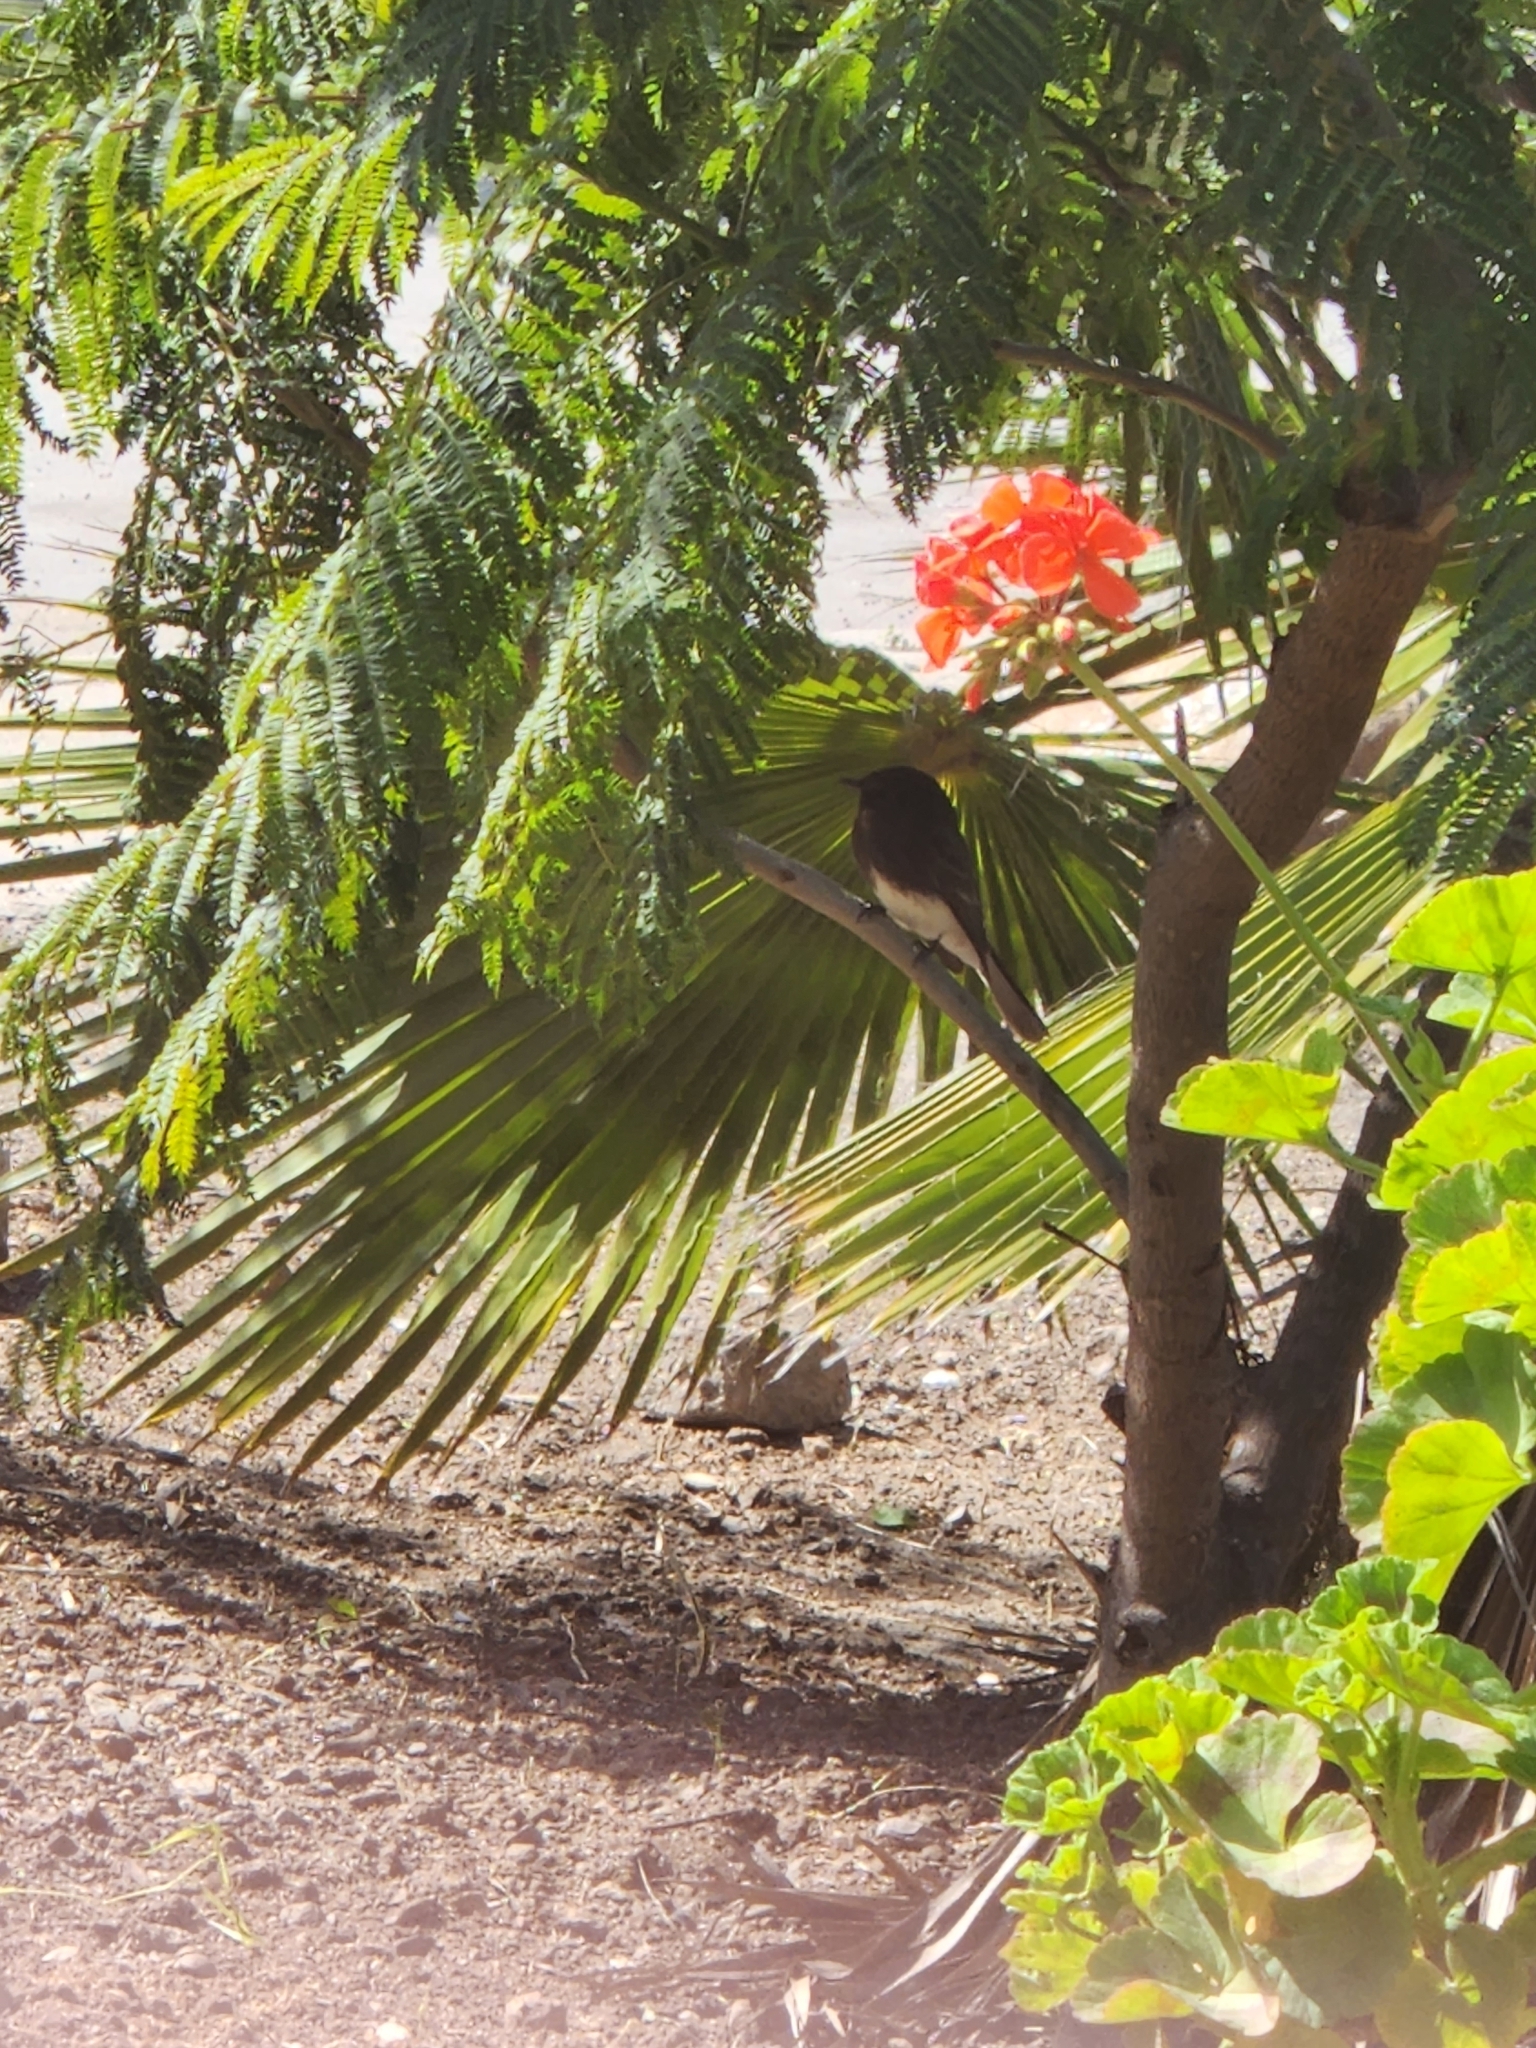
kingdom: Animalia
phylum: Chordata
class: Aves
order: Passeriformes
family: Tyrannidae
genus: Sayornis
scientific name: Sayornis nigricans
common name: Black phoebe
